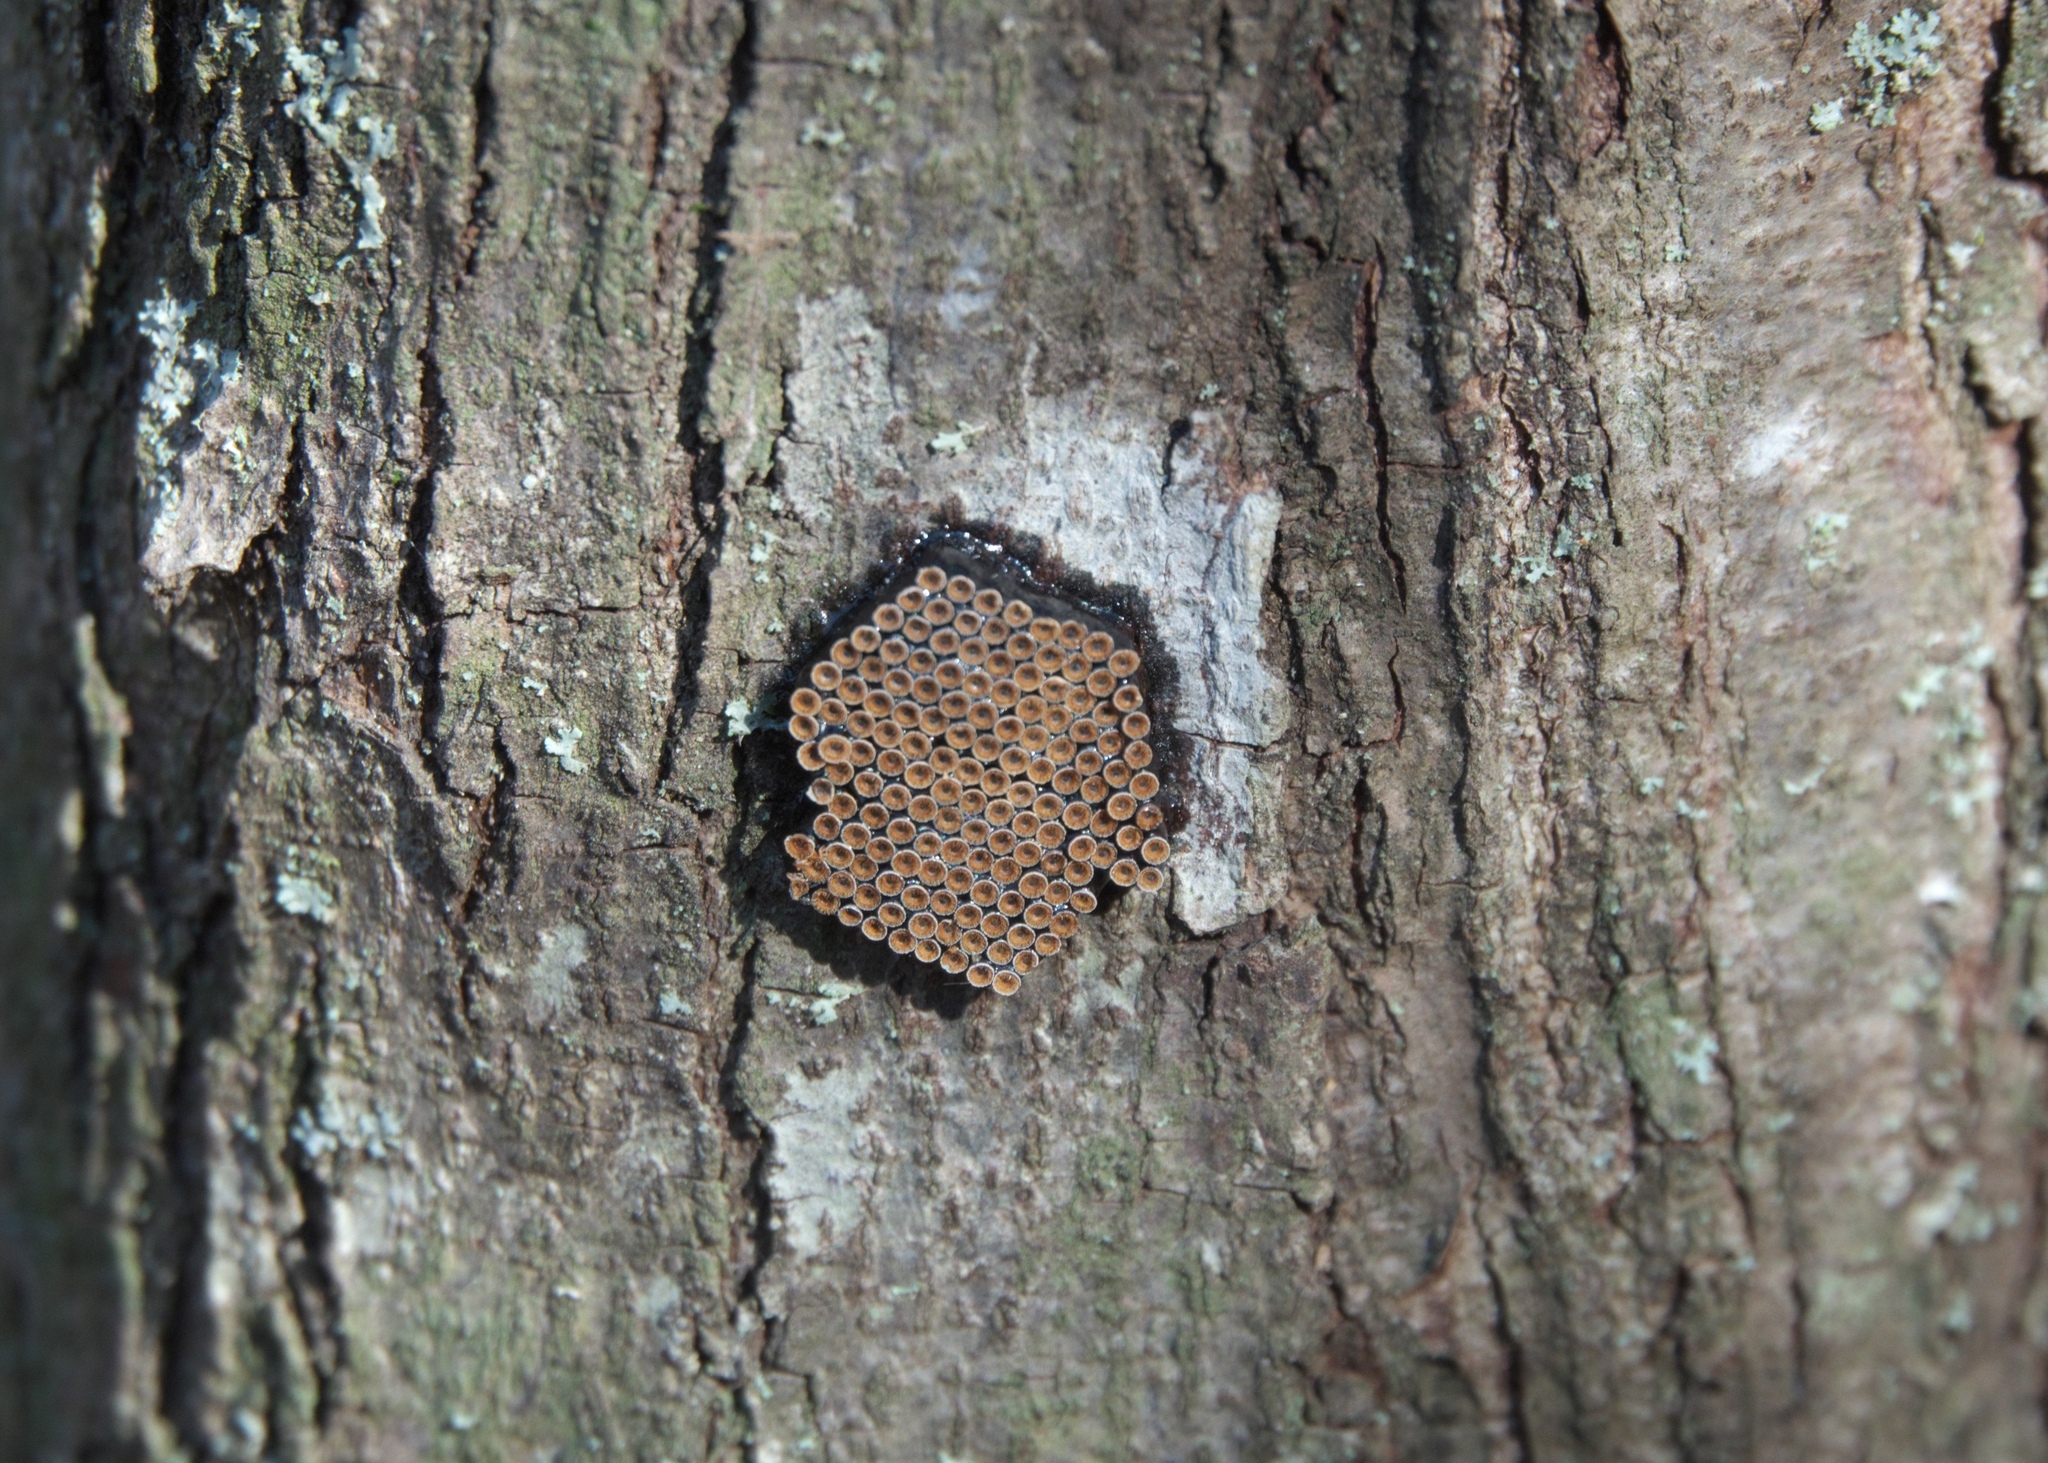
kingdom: Animalia
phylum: Arthropoda
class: Insecta
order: Hemiptera
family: Reduviidae
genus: Arilus
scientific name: Arilus cristatus
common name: North american wheel bug
